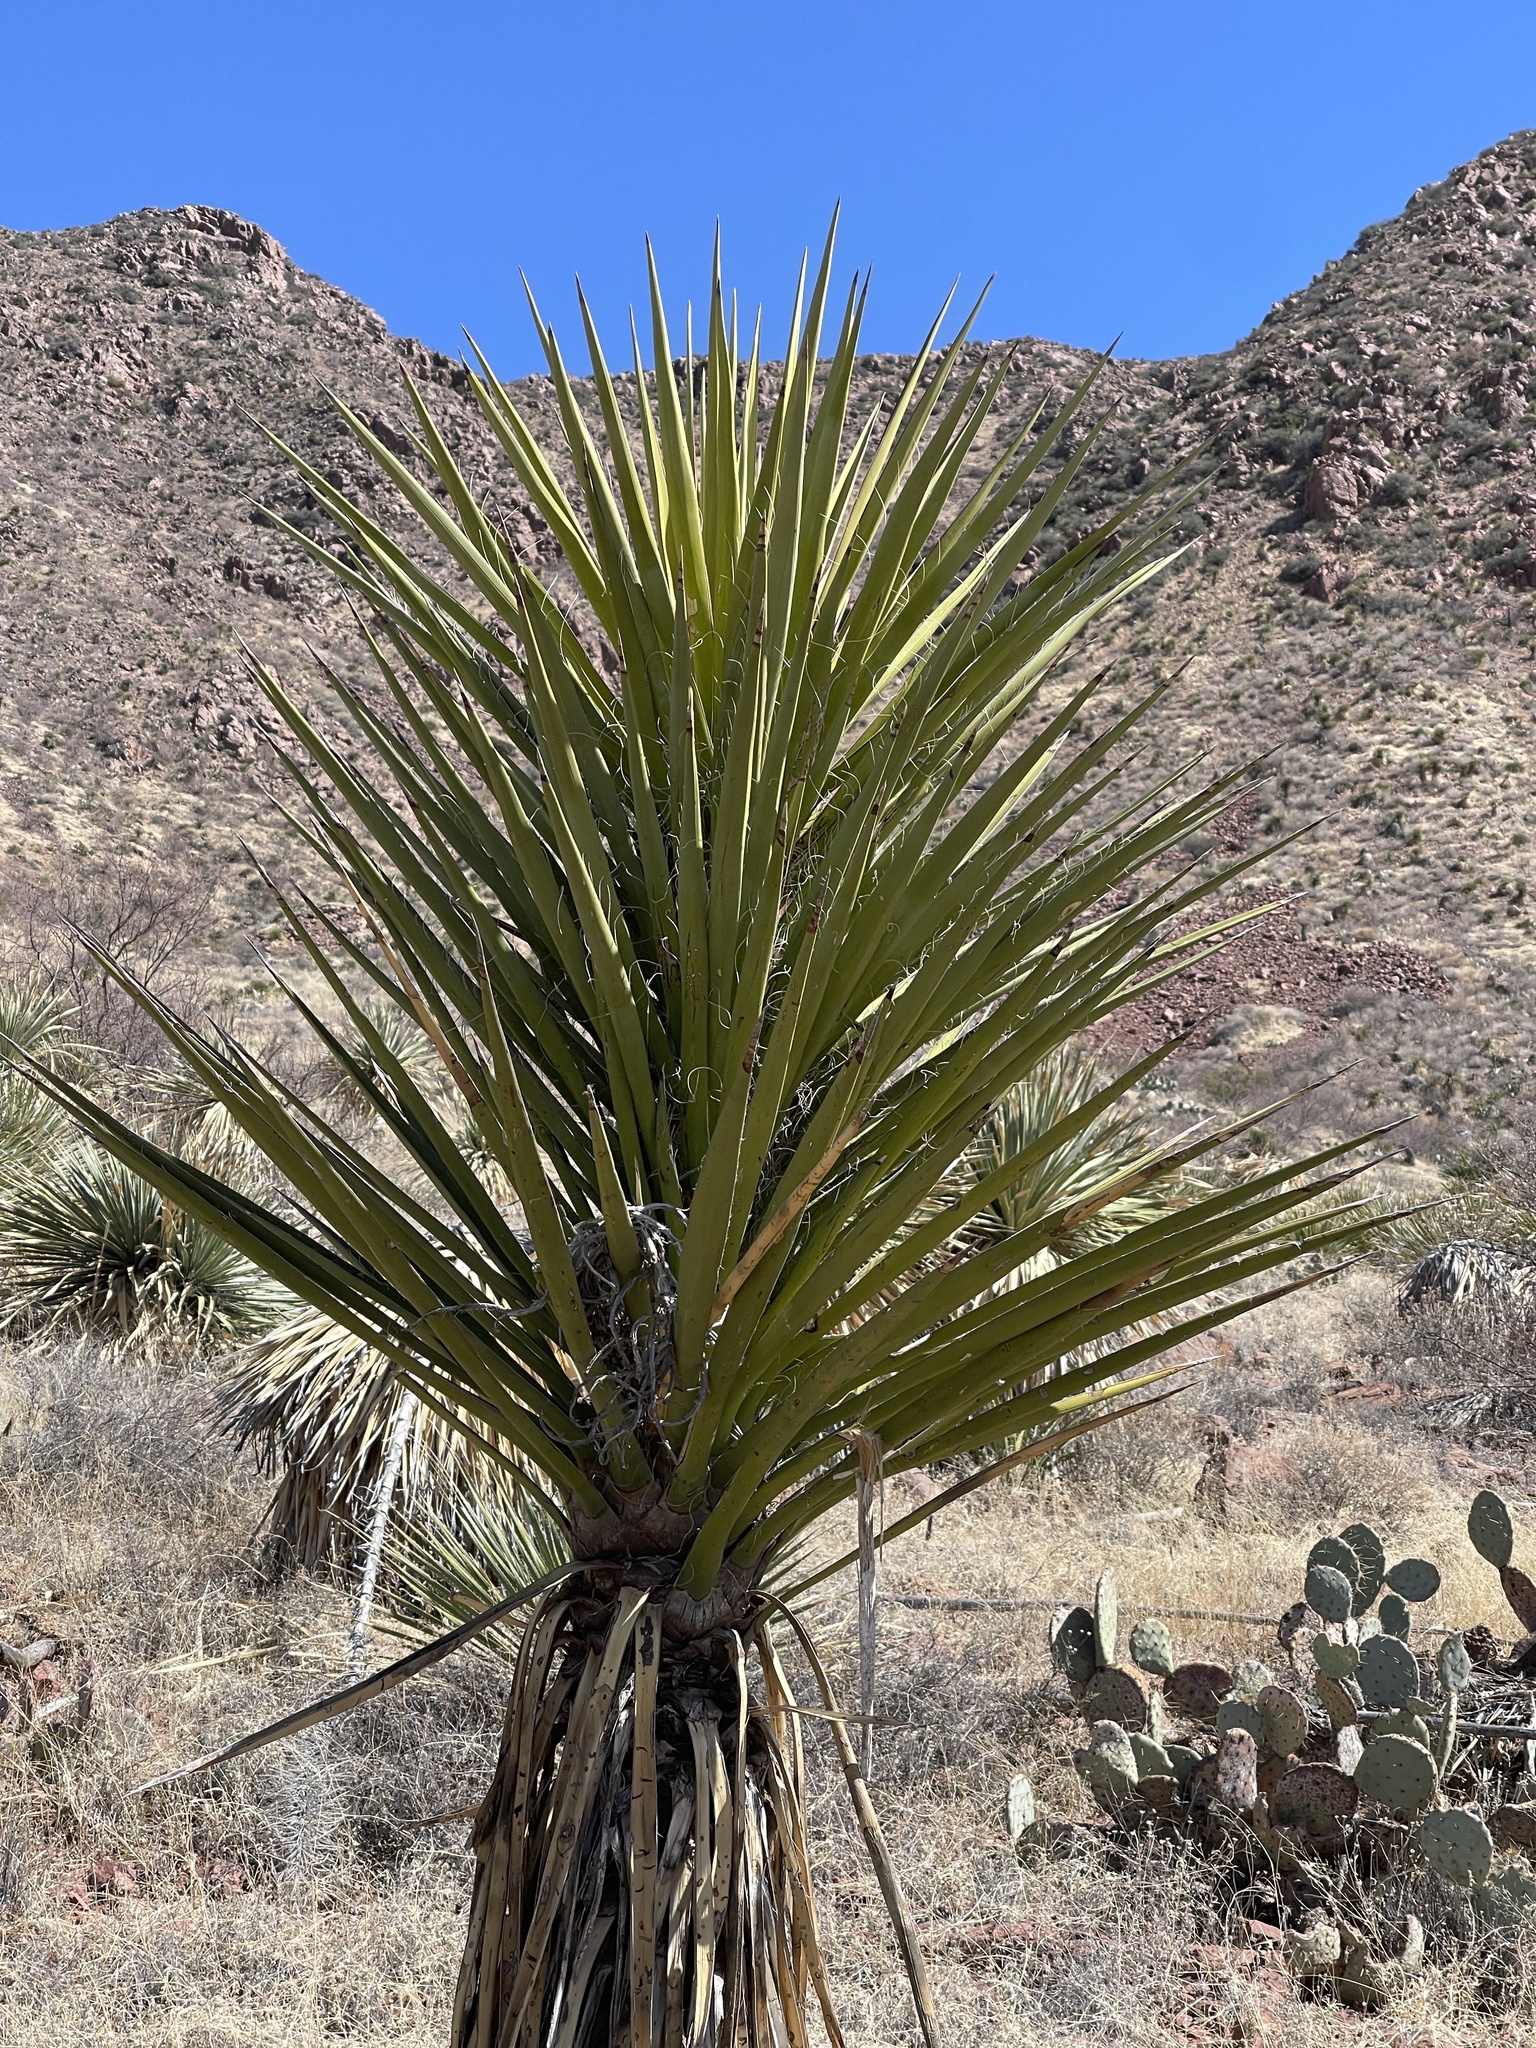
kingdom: Plantae
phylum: Tracheophyta
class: Liliopsida
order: Asparagales
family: Asparagaceae
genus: Yucca
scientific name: Yucca treculiana
